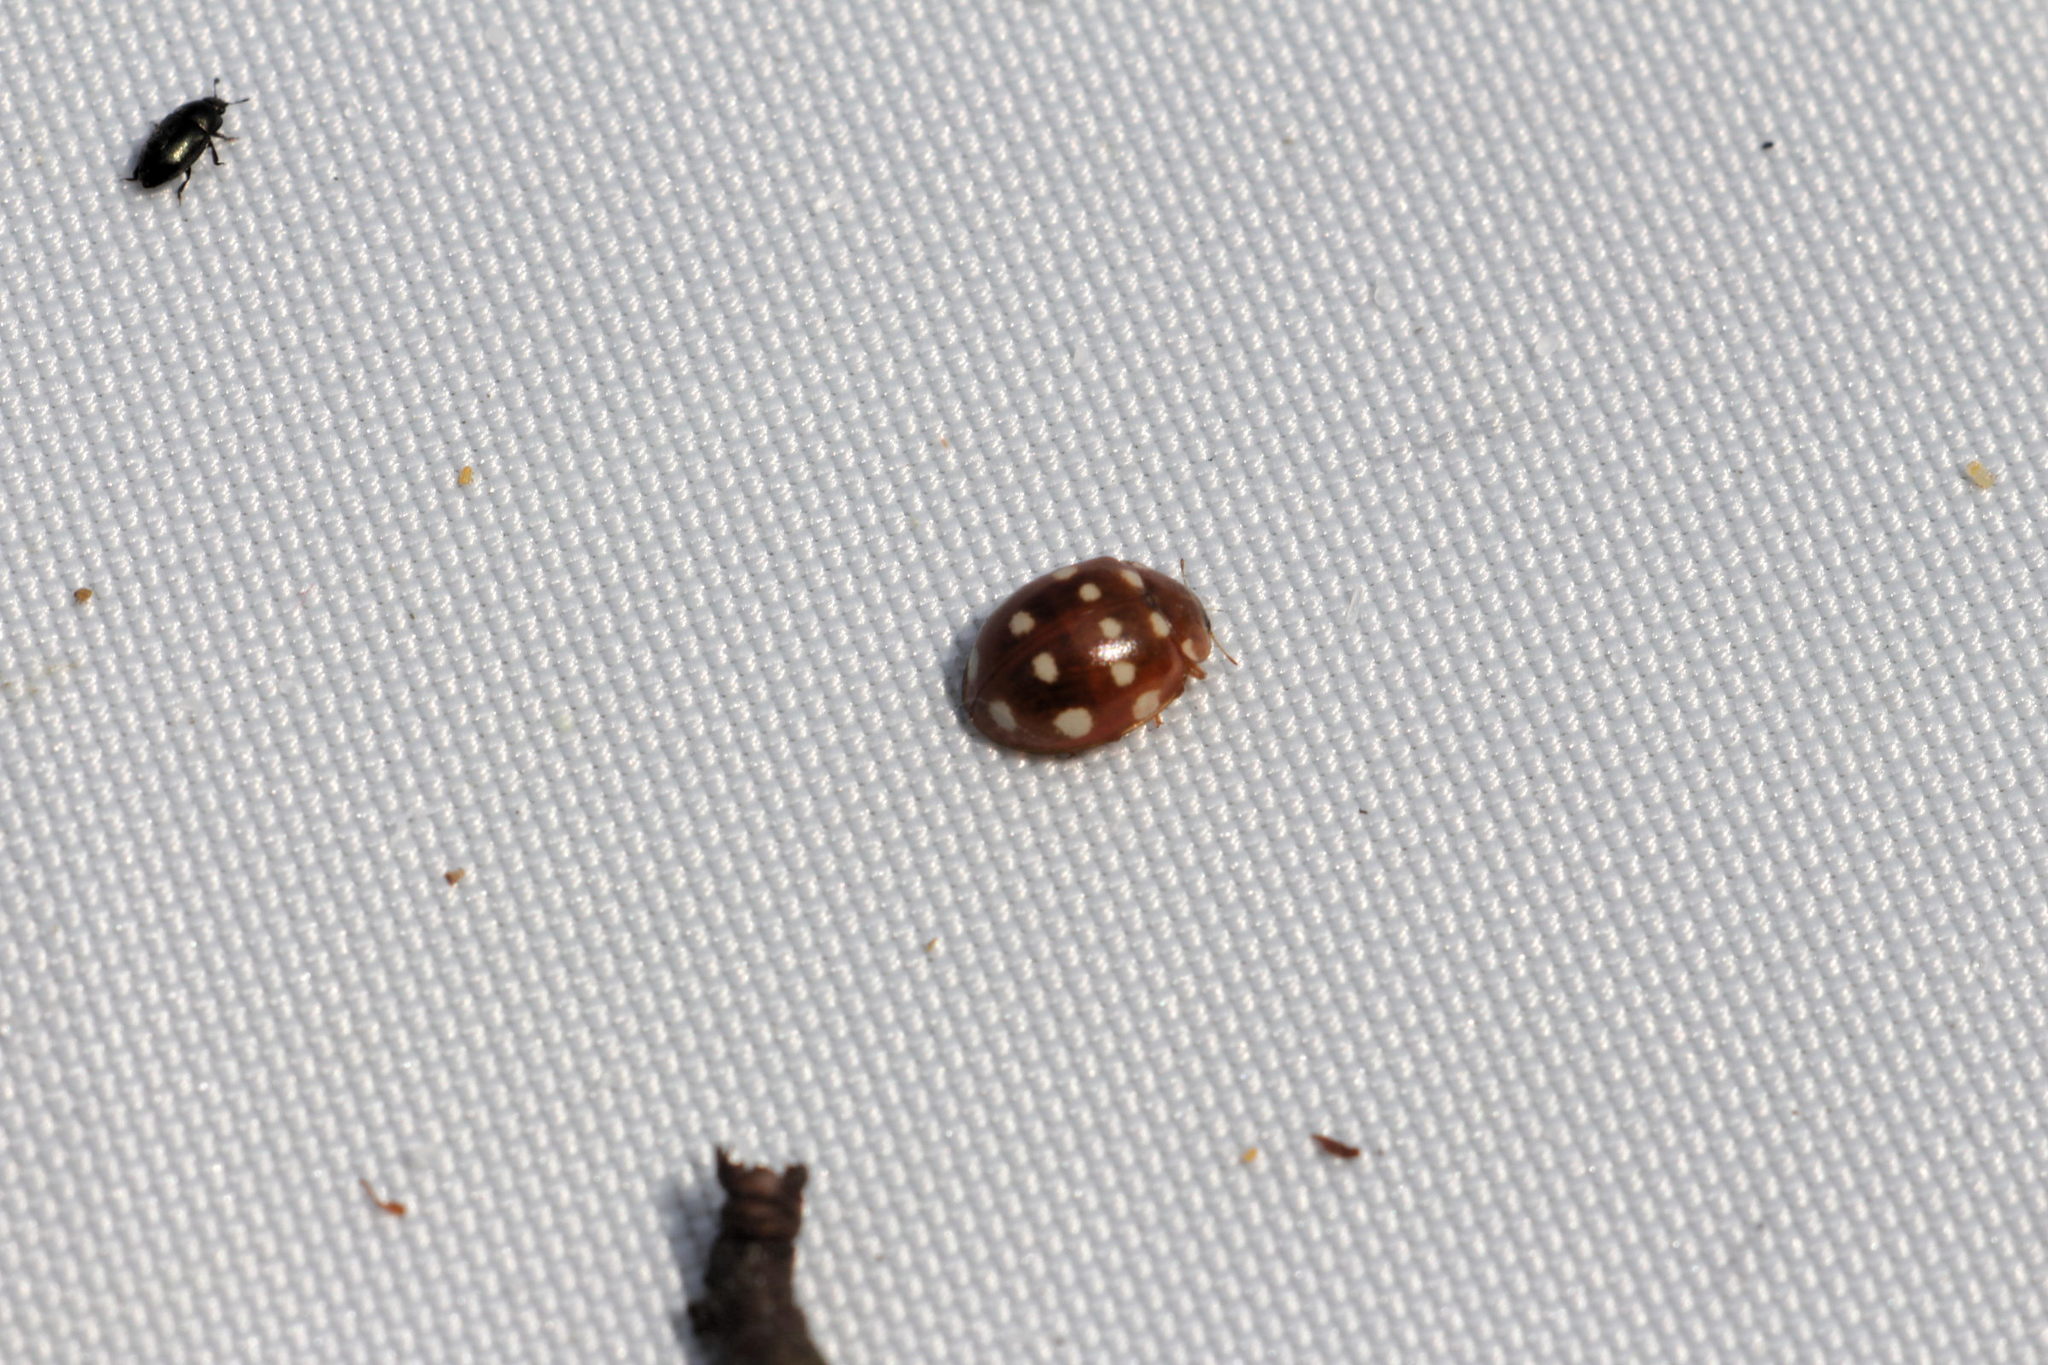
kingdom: Animalia
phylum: Arthropoda
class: Insecta
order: Coleoptera
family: Coccinellidae
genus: Calvia
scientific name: Calvia quatuordecimguttata
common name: Cream-spot ladybird
